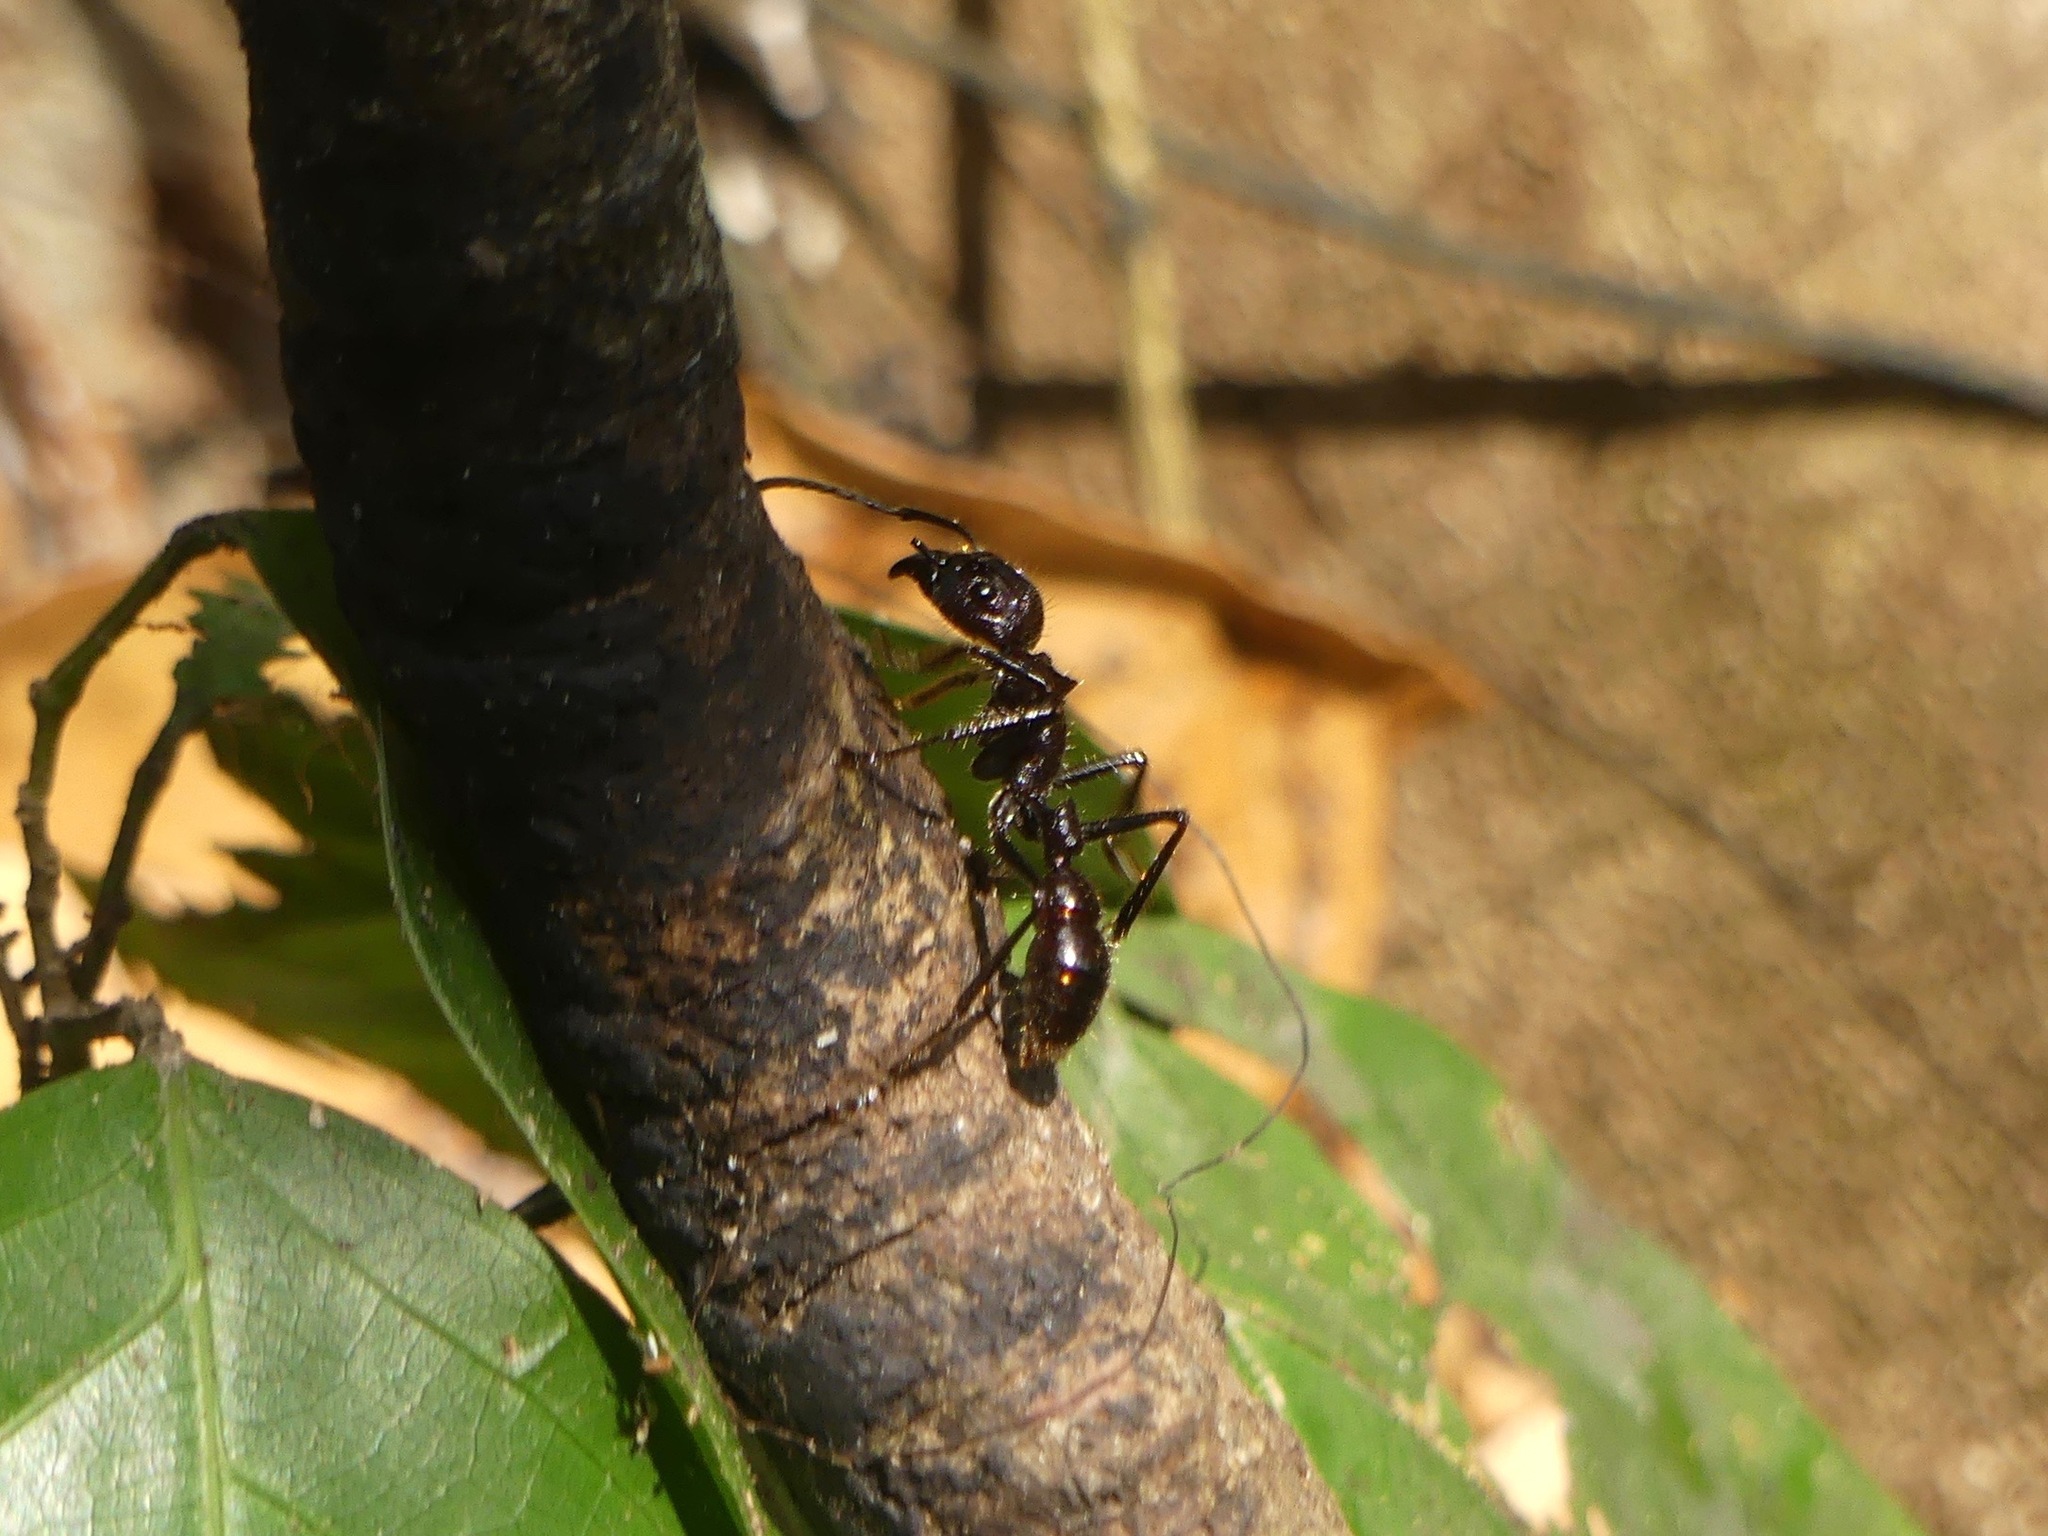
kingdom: Animalia
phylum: Arthropoda
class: Insecta
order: Hymenoptera
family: Formicidae
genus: Paraponera
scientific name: Paraponera clavata
